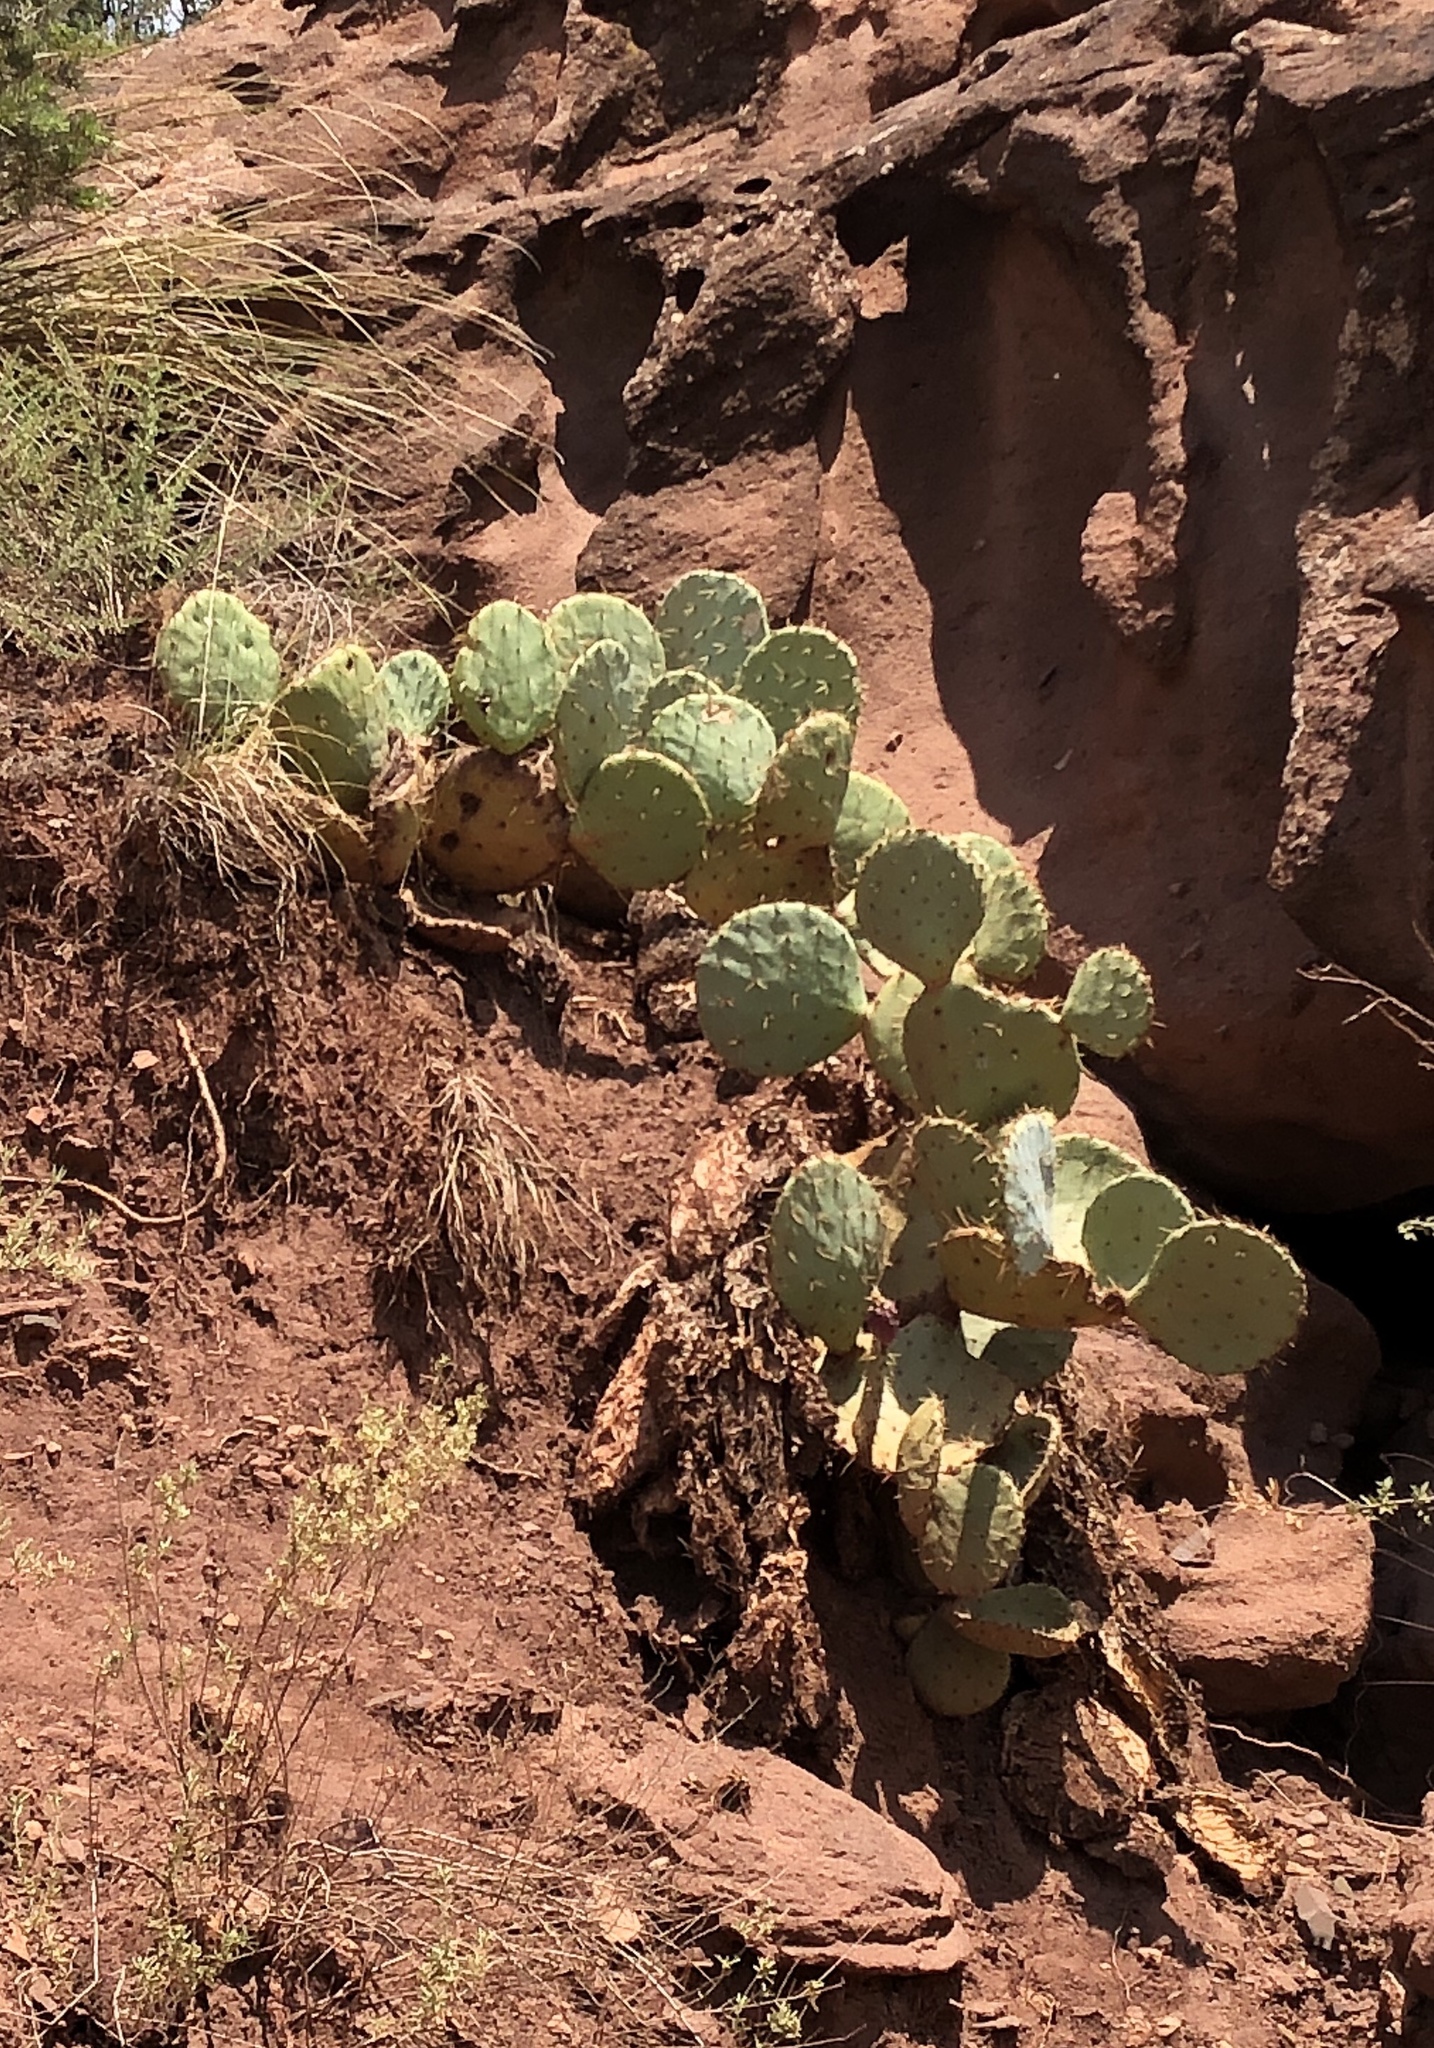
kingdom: Plantae
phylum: Tracheophyta
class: Magnoliopsida
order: Caryophyllales
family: Cactaceae
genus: Opuntia
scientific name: Opuntia orbiculata
